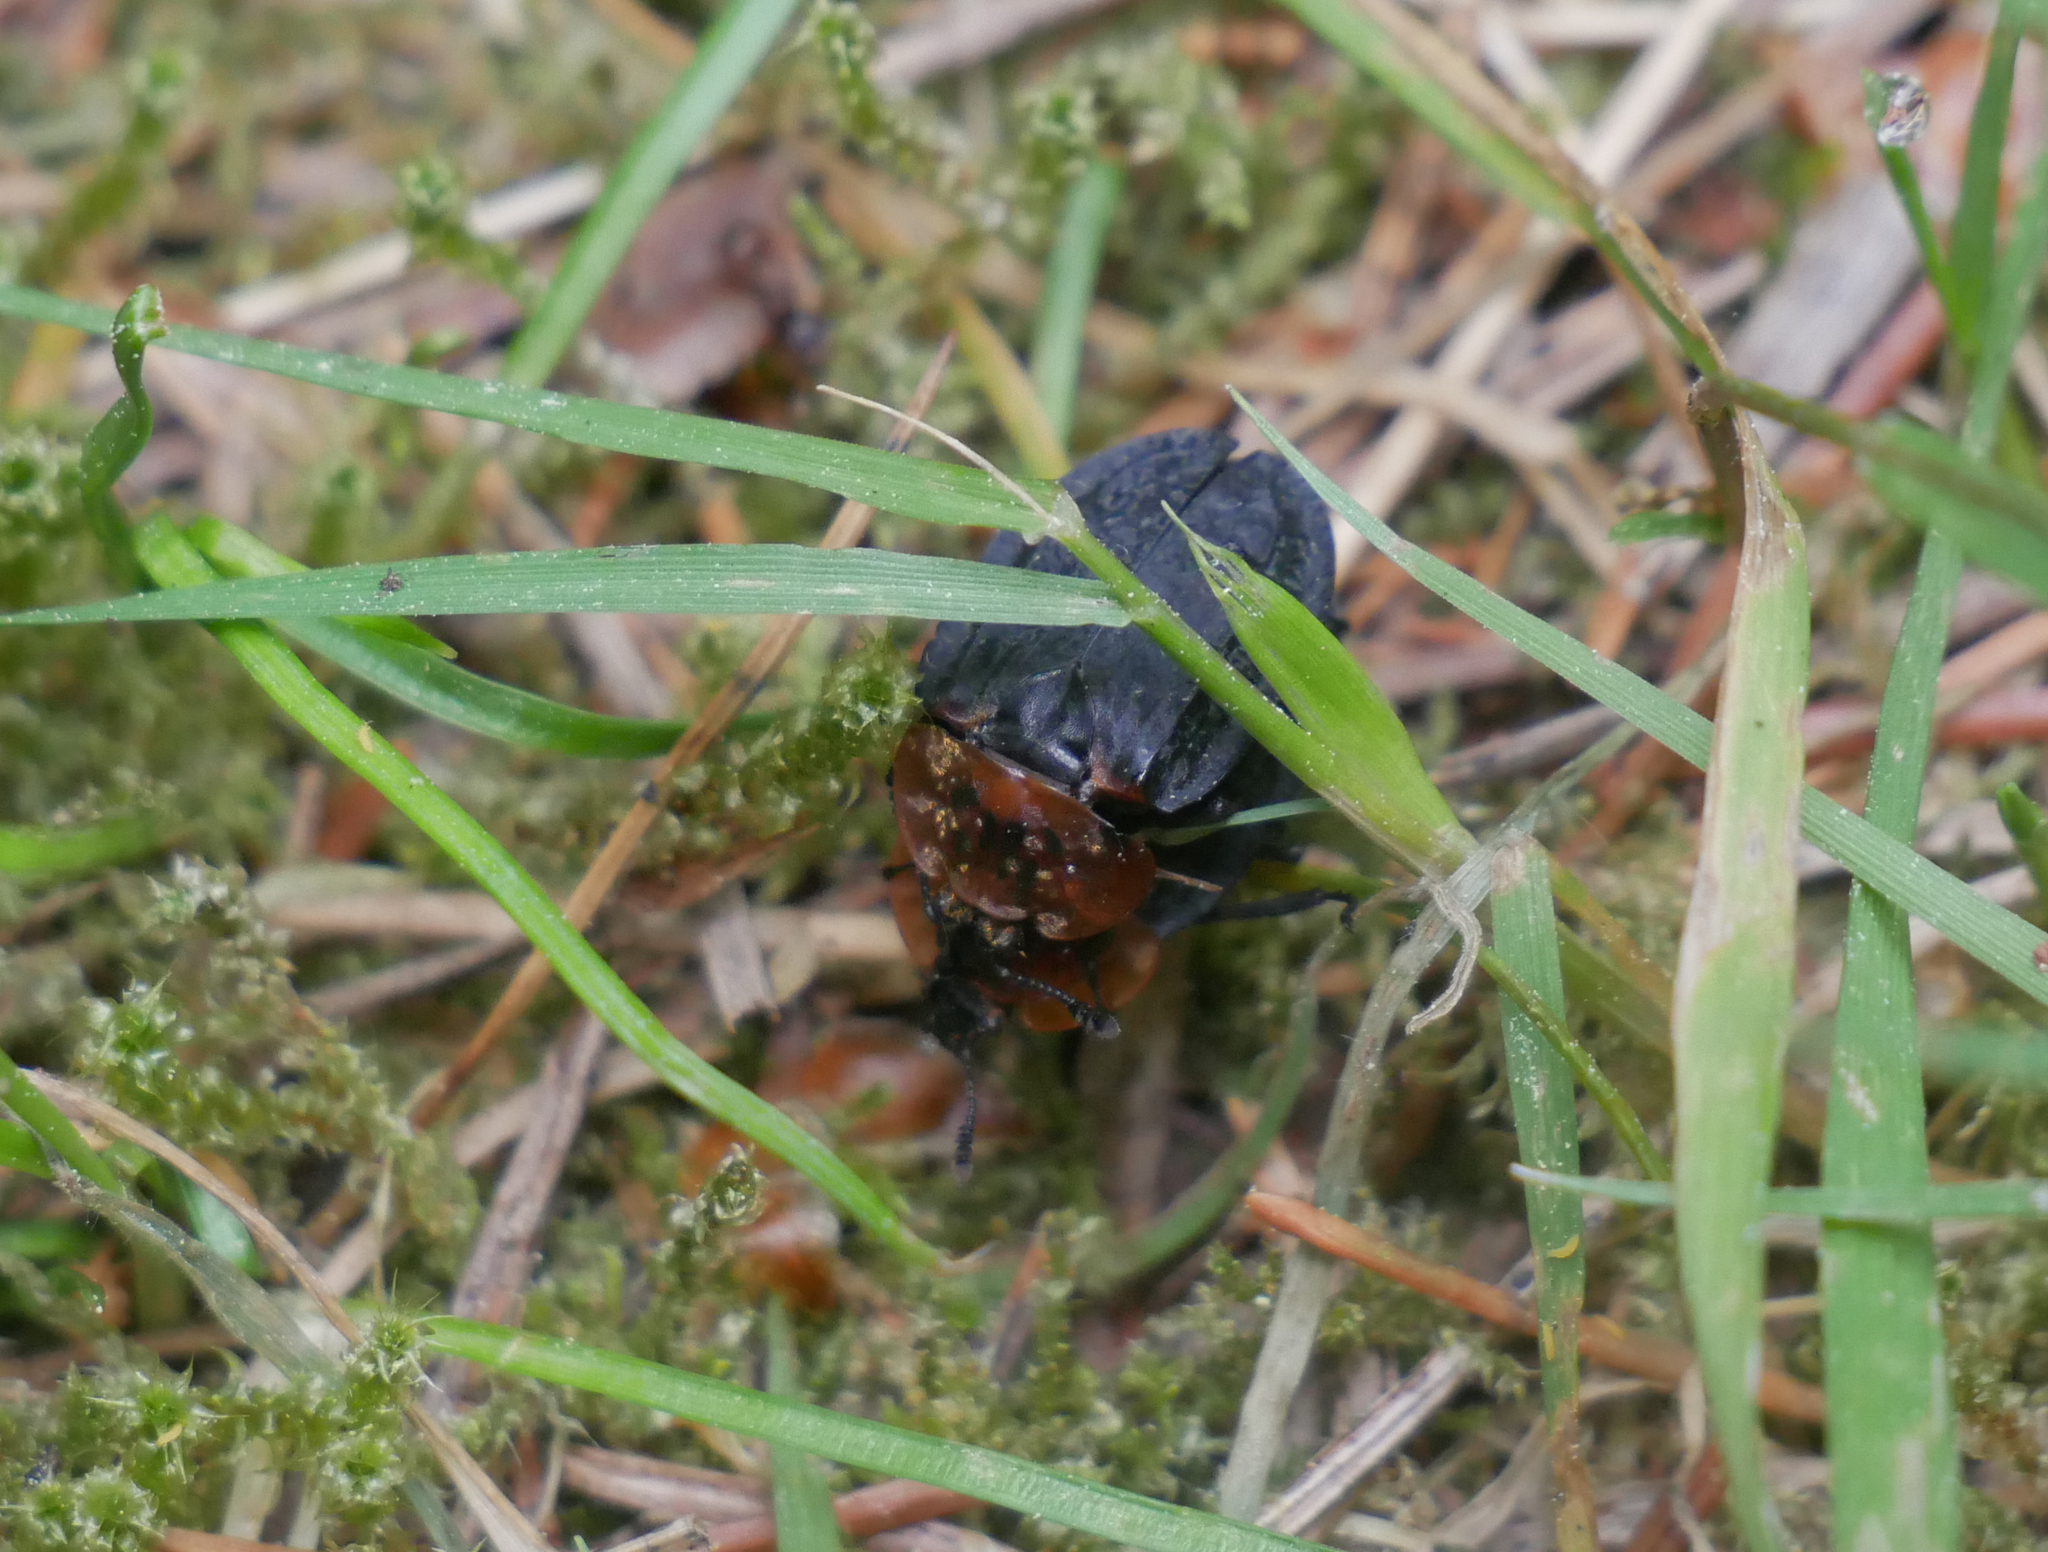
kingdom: Animalia
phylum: Arthropoda
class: Insecta
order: Coleoptera
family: Staphylinidae
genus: Oiceoptoma
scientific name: Oiceoptoma thoracicum
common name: Red-breasted carrion beetle
